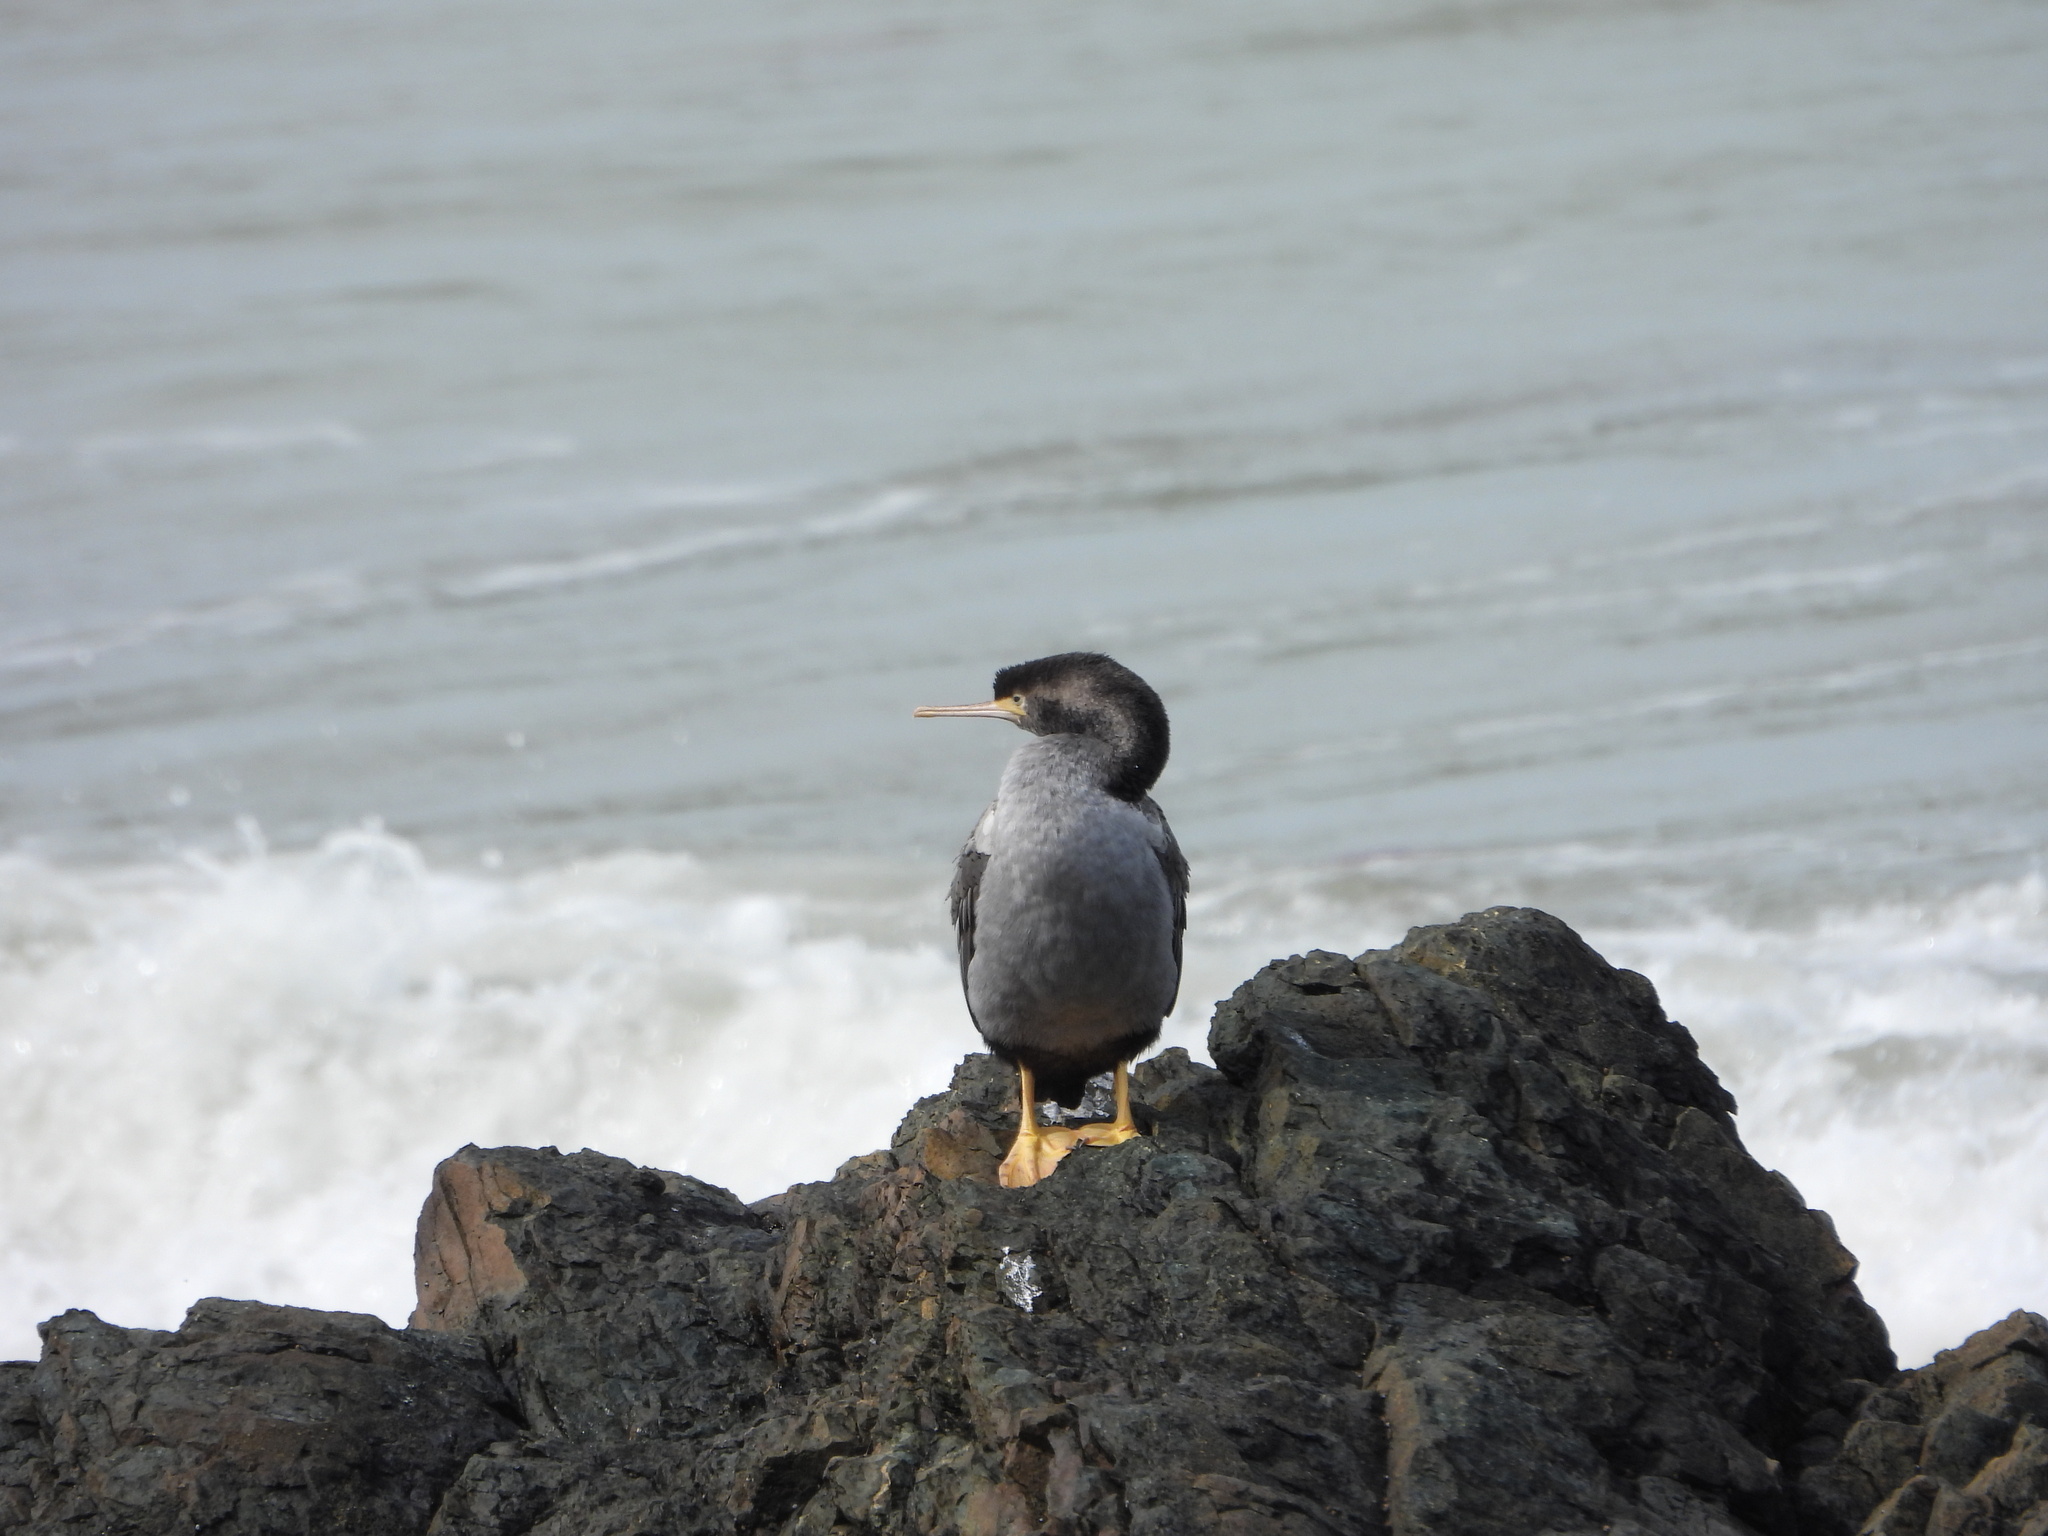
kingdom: Animalia
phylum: Chordata
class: Aves
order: Suliformes
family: Phalacrocoracidae
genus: Phalacrocorax
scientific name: Phalacrocorax punctatus
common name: Spotted shag
